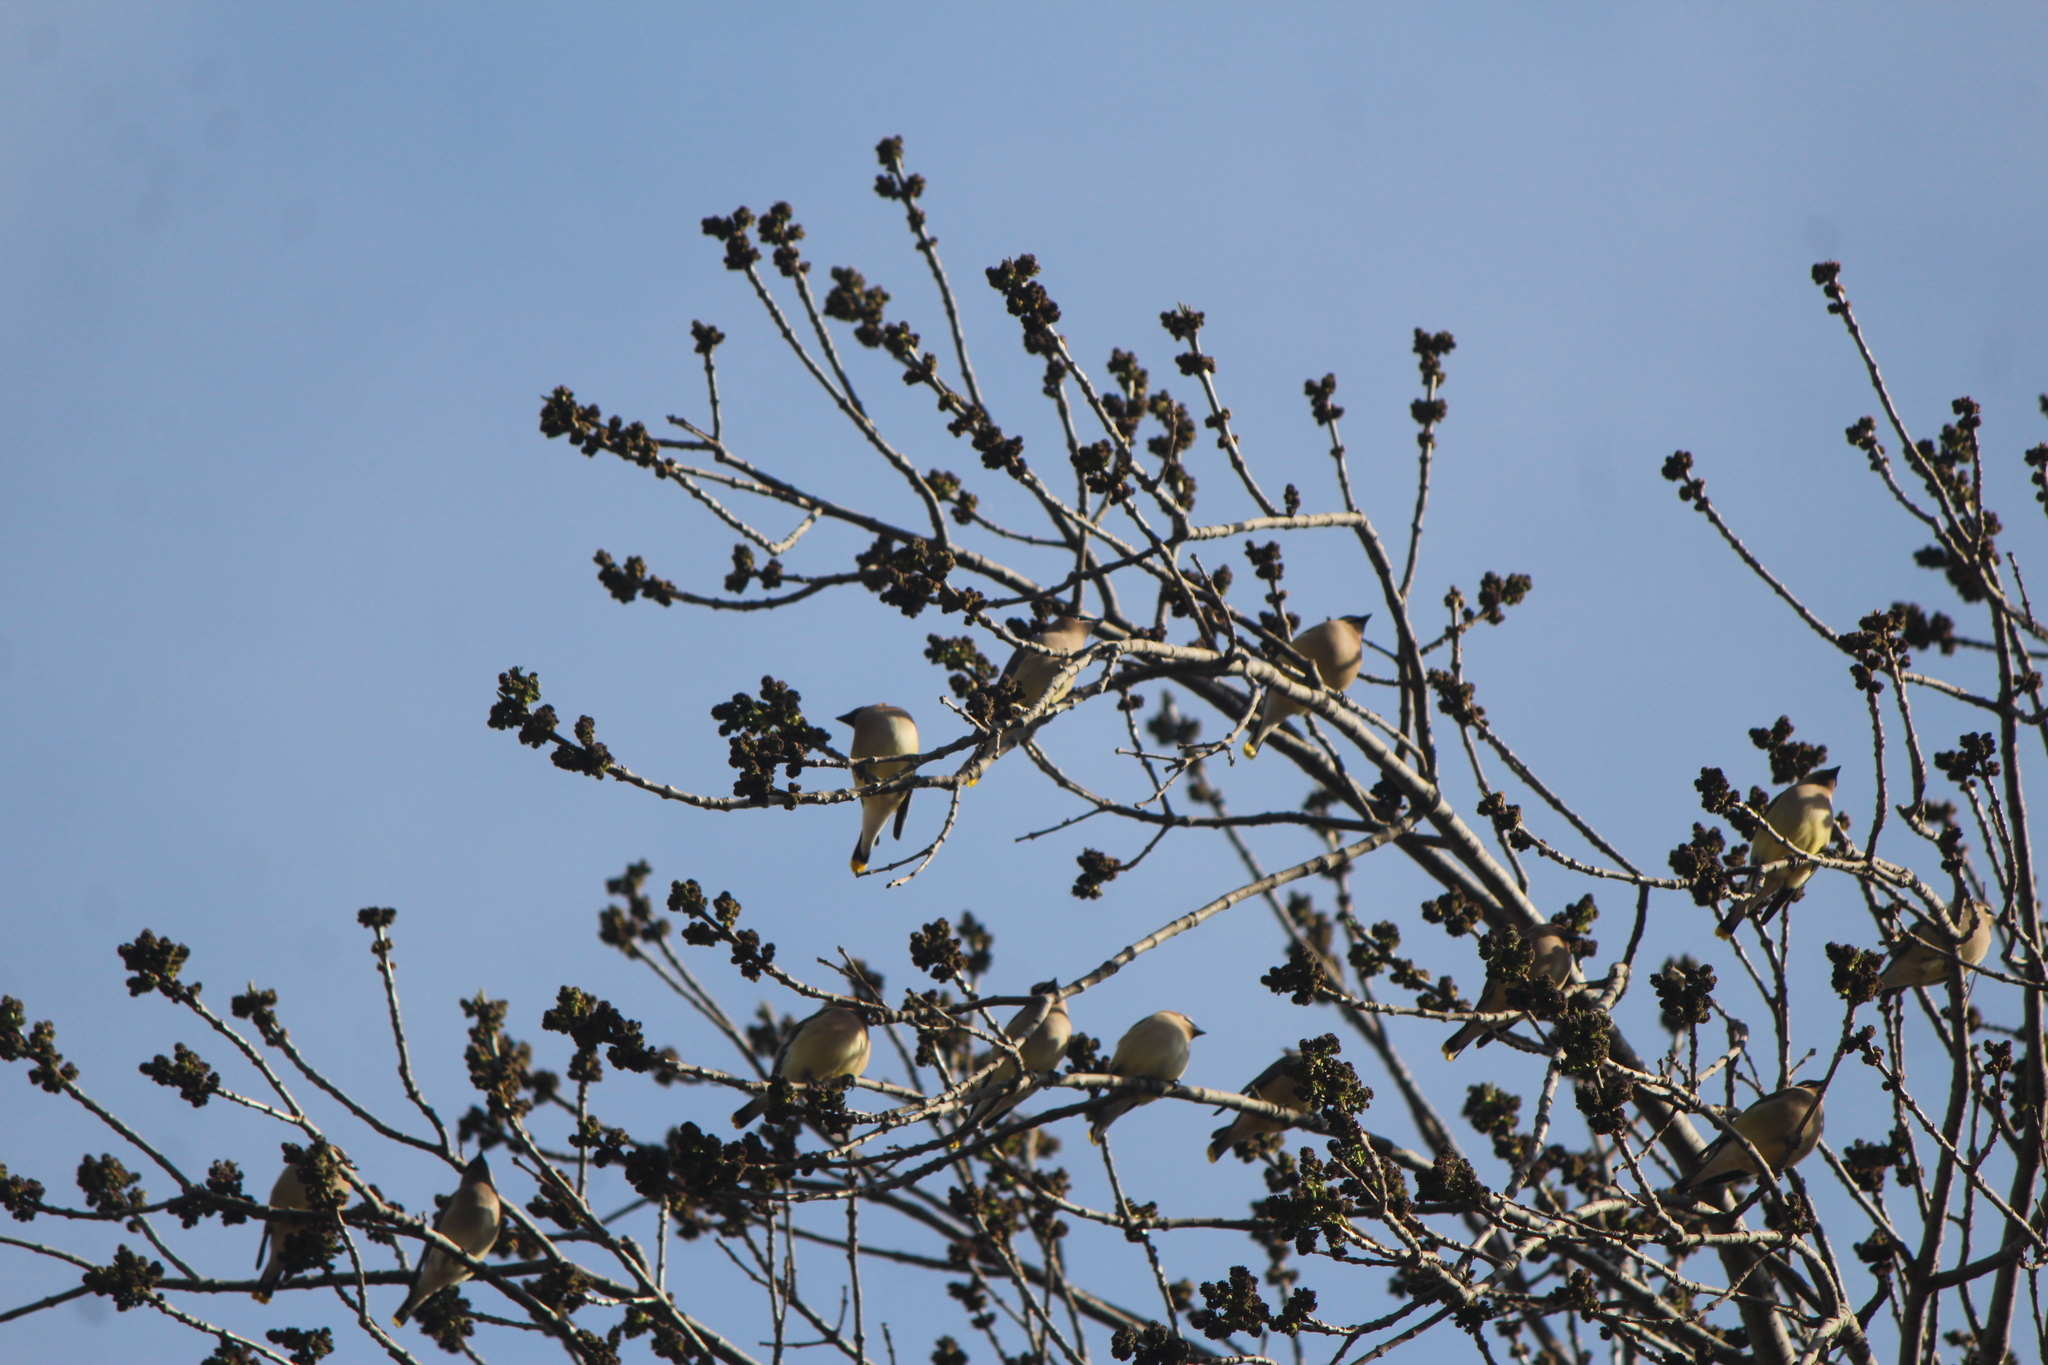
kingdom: Animalia
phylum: Chordata
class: Aves
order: Passeriformes
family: Bombycillidae
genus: Bombycilla
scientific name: Bombycilla cedrorum
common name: Cedar waxwing
